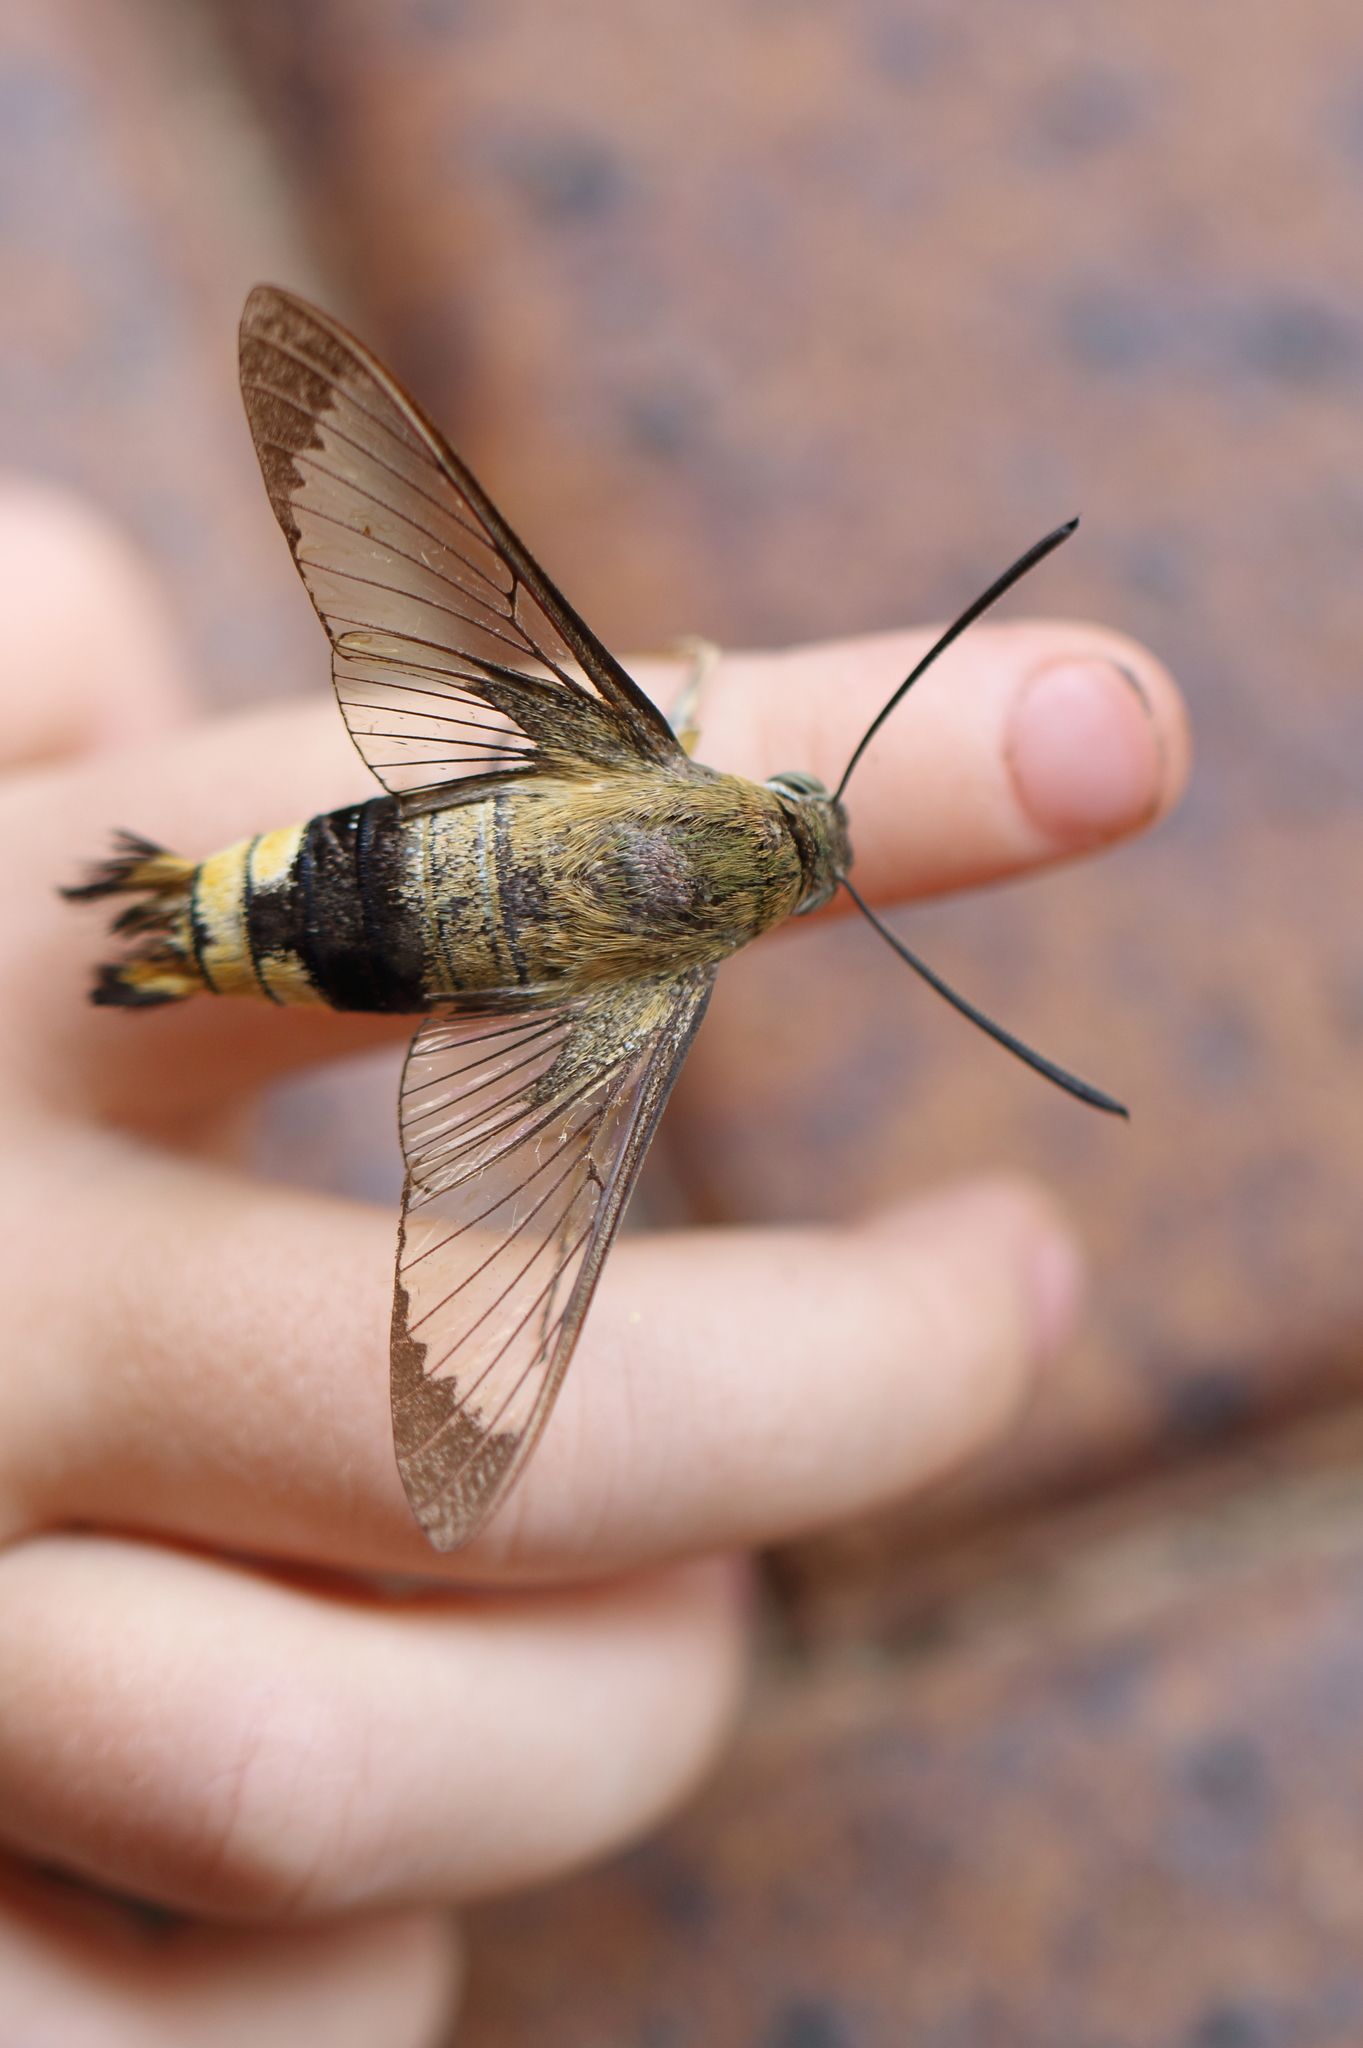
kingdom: Animalia
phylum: Arthropoda
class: Insecta
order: Lepidoptera
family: Sphingidae
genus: Cephonodes
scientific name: Cephonodes kingii
